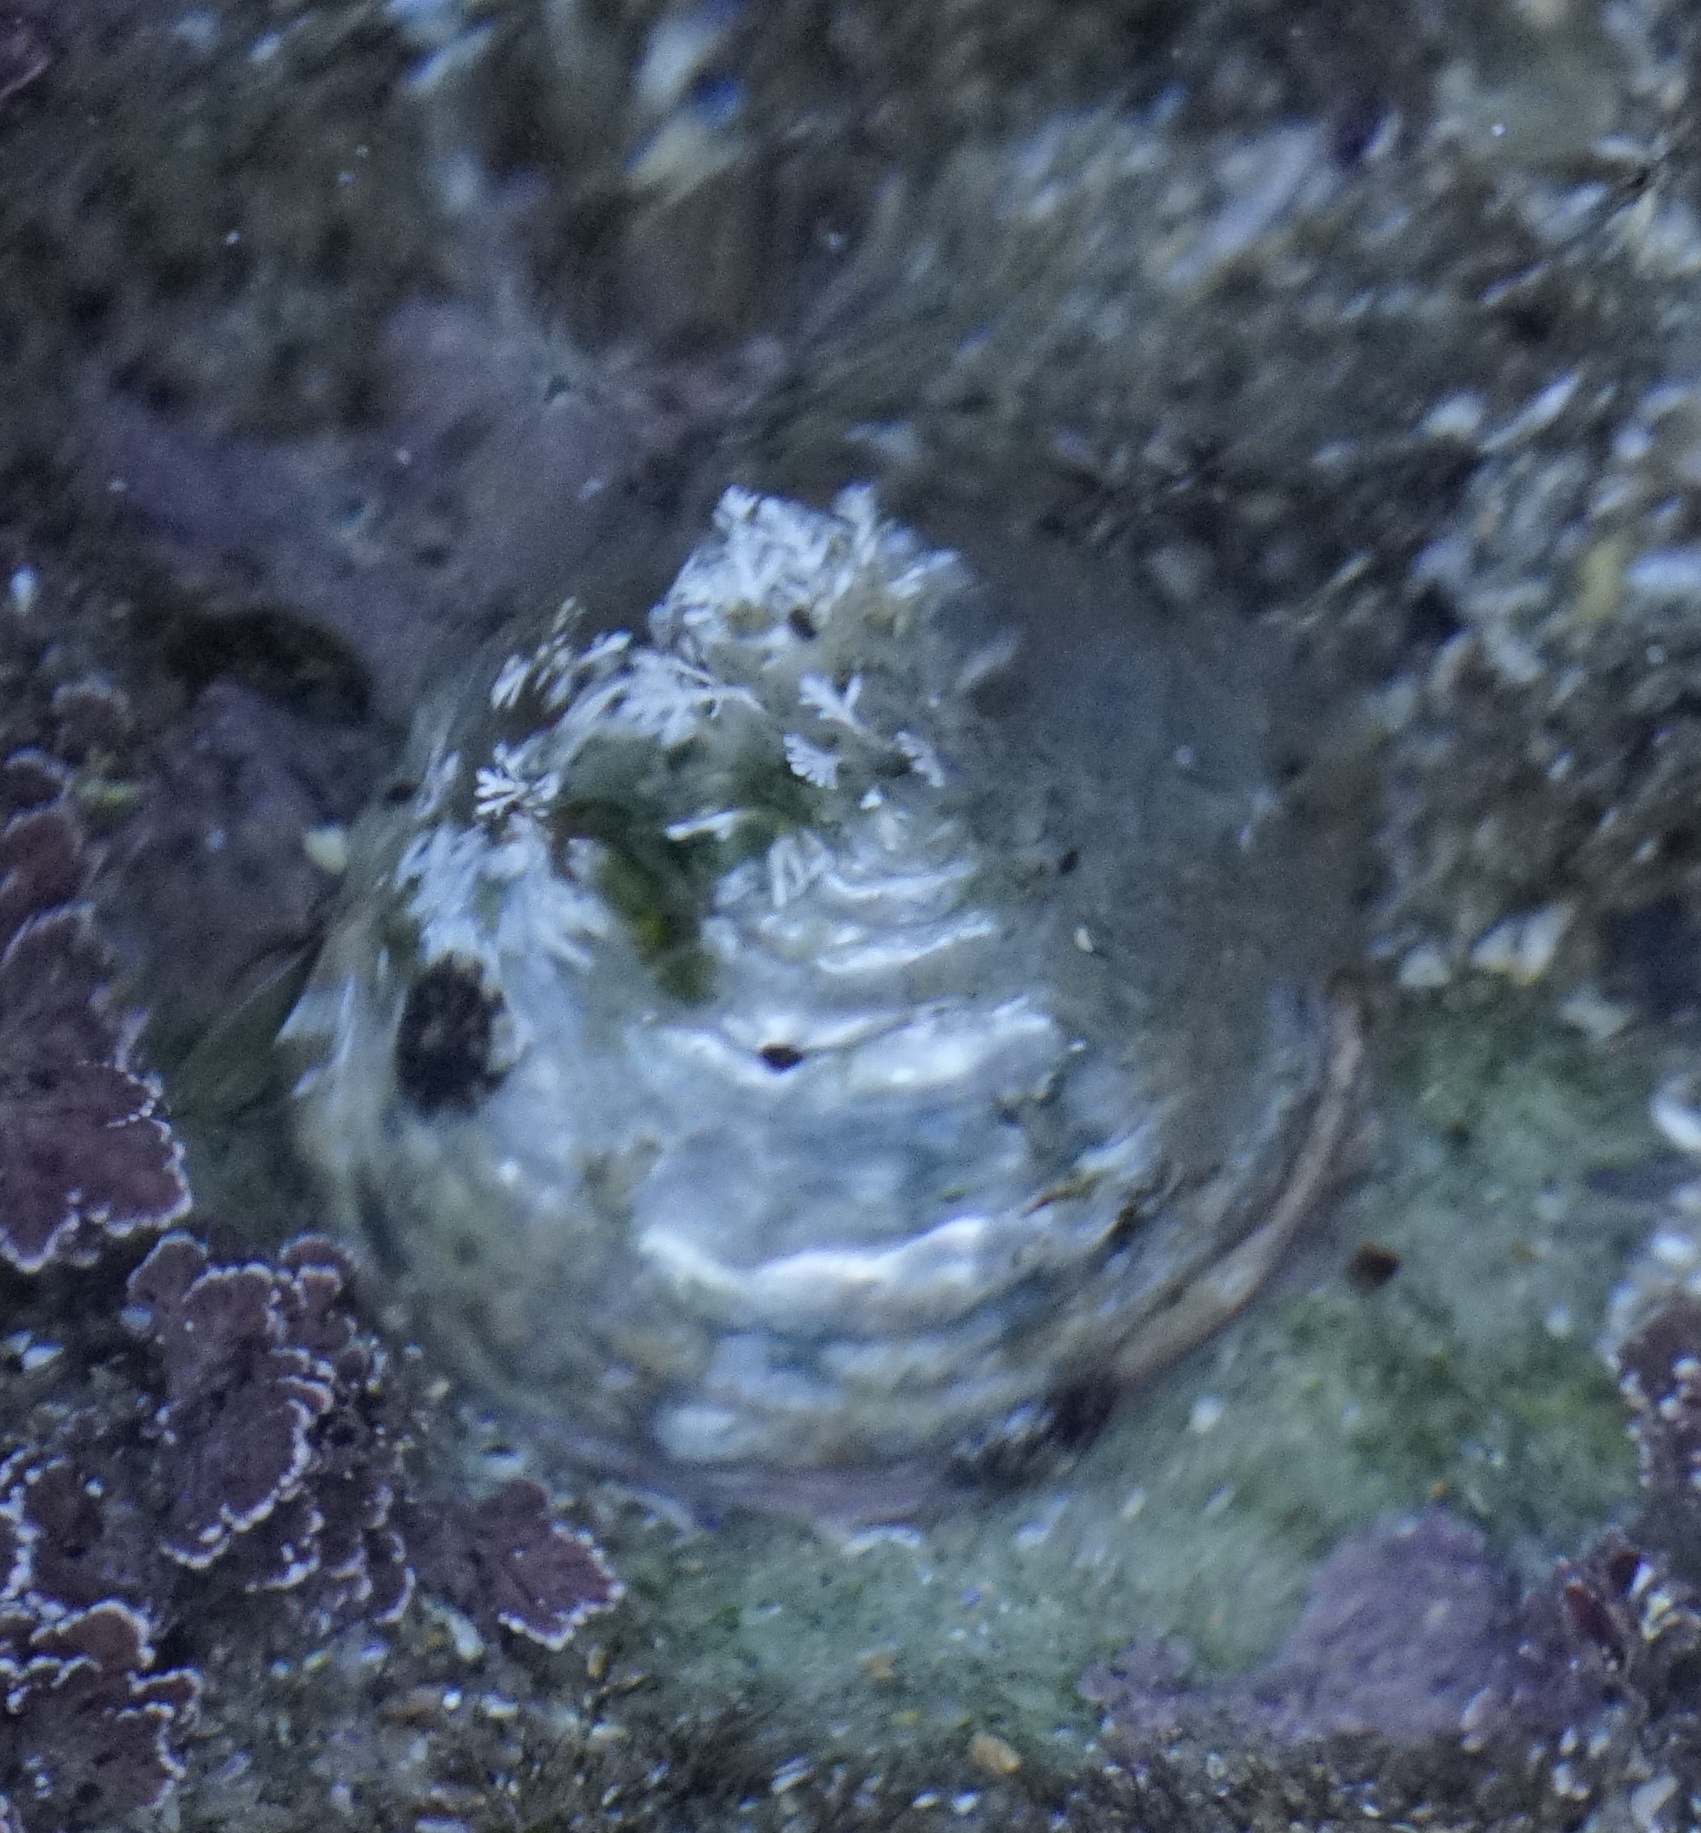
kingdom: Animalia
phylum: Mollusca
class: Gastropoda
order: Trochida
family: Turbinidae
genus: Astralium
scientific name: Astralium tentoriiforme
